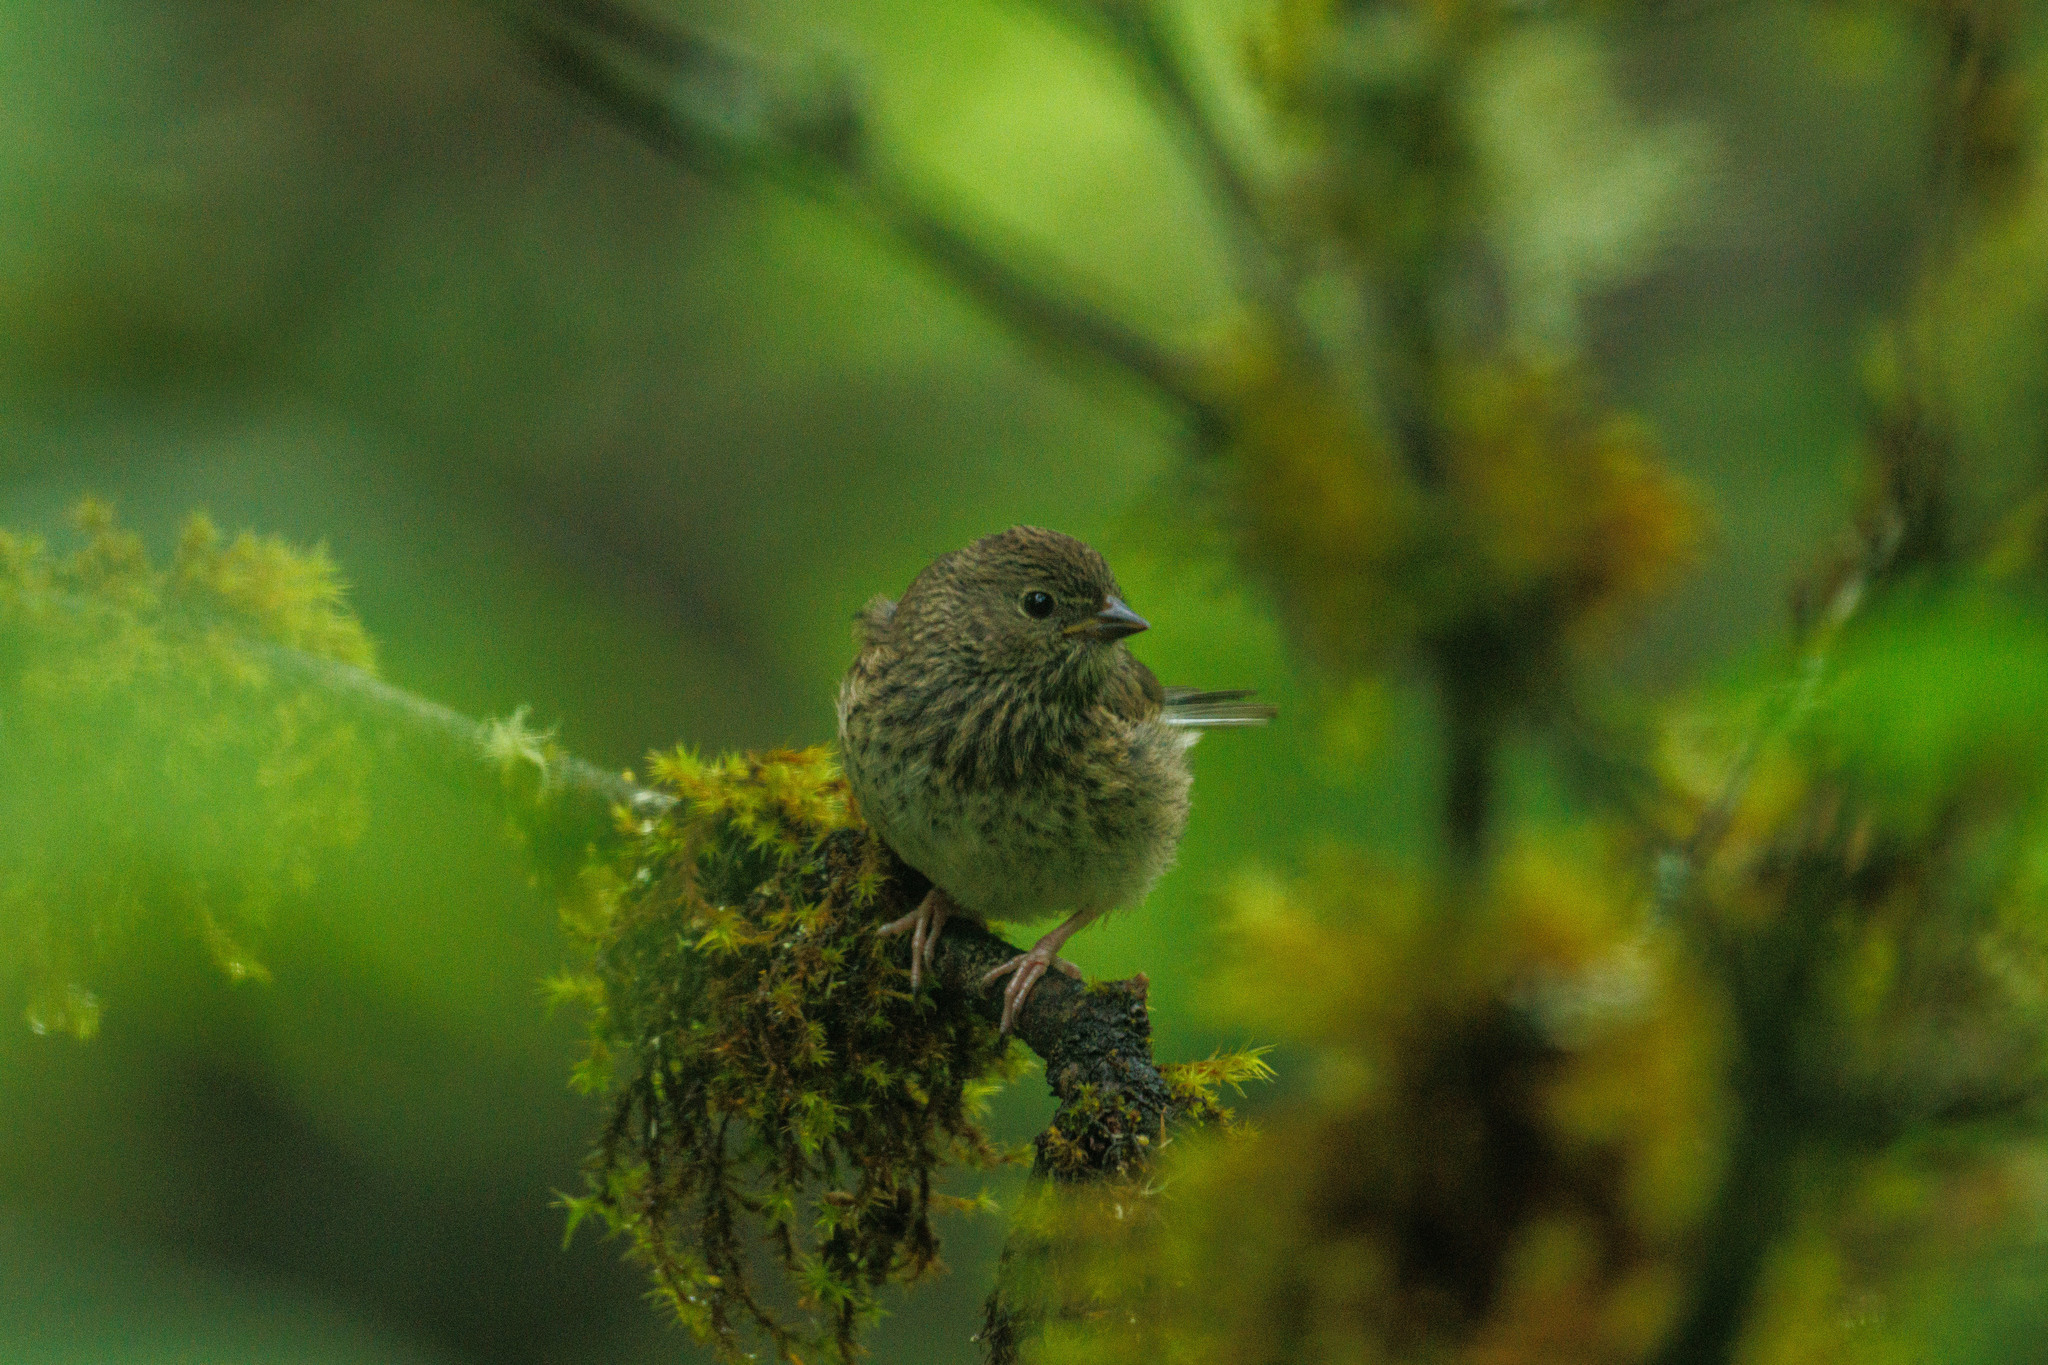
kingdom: Animalia
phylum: Chordata
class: Aves
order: Passeriformes
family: Passerellidae
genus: Junco
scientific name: Junco hyemalis
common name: Dark-eyed junco
